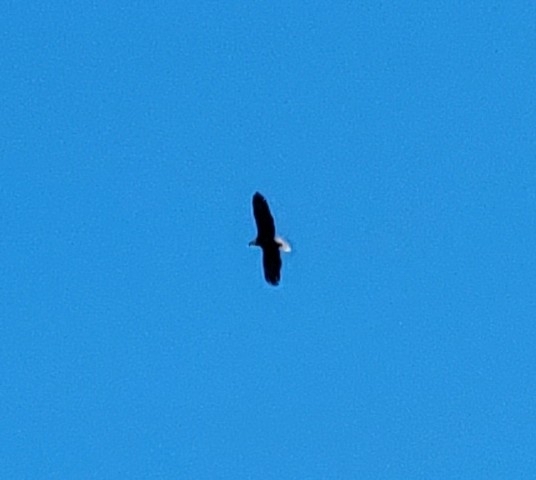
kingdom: Animalia
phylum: Chordata
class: Aves
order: Accipitriformes
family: Accipitridae
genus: Haliaeetus
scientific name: Haliaeetus leucocephalus
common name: Bald eagle
